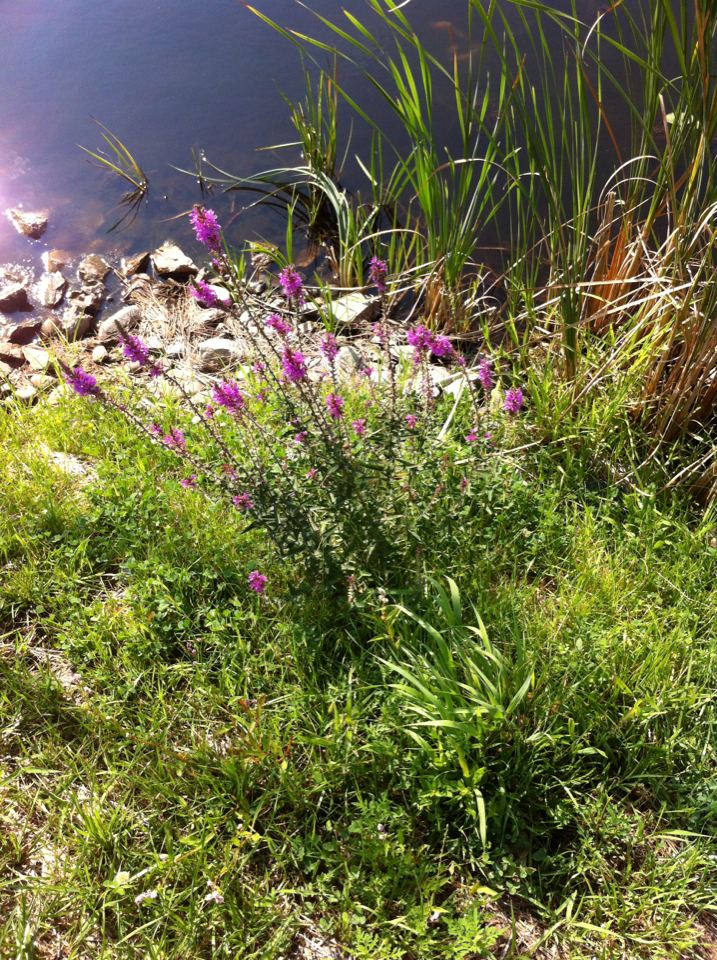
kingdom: Plantae
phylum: Tracheophyta
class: Magnoliopsida
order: Myrtales
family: Lythraceae
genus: Lythrum
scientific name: Lythrum salicaria
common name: Purple loosestrife
